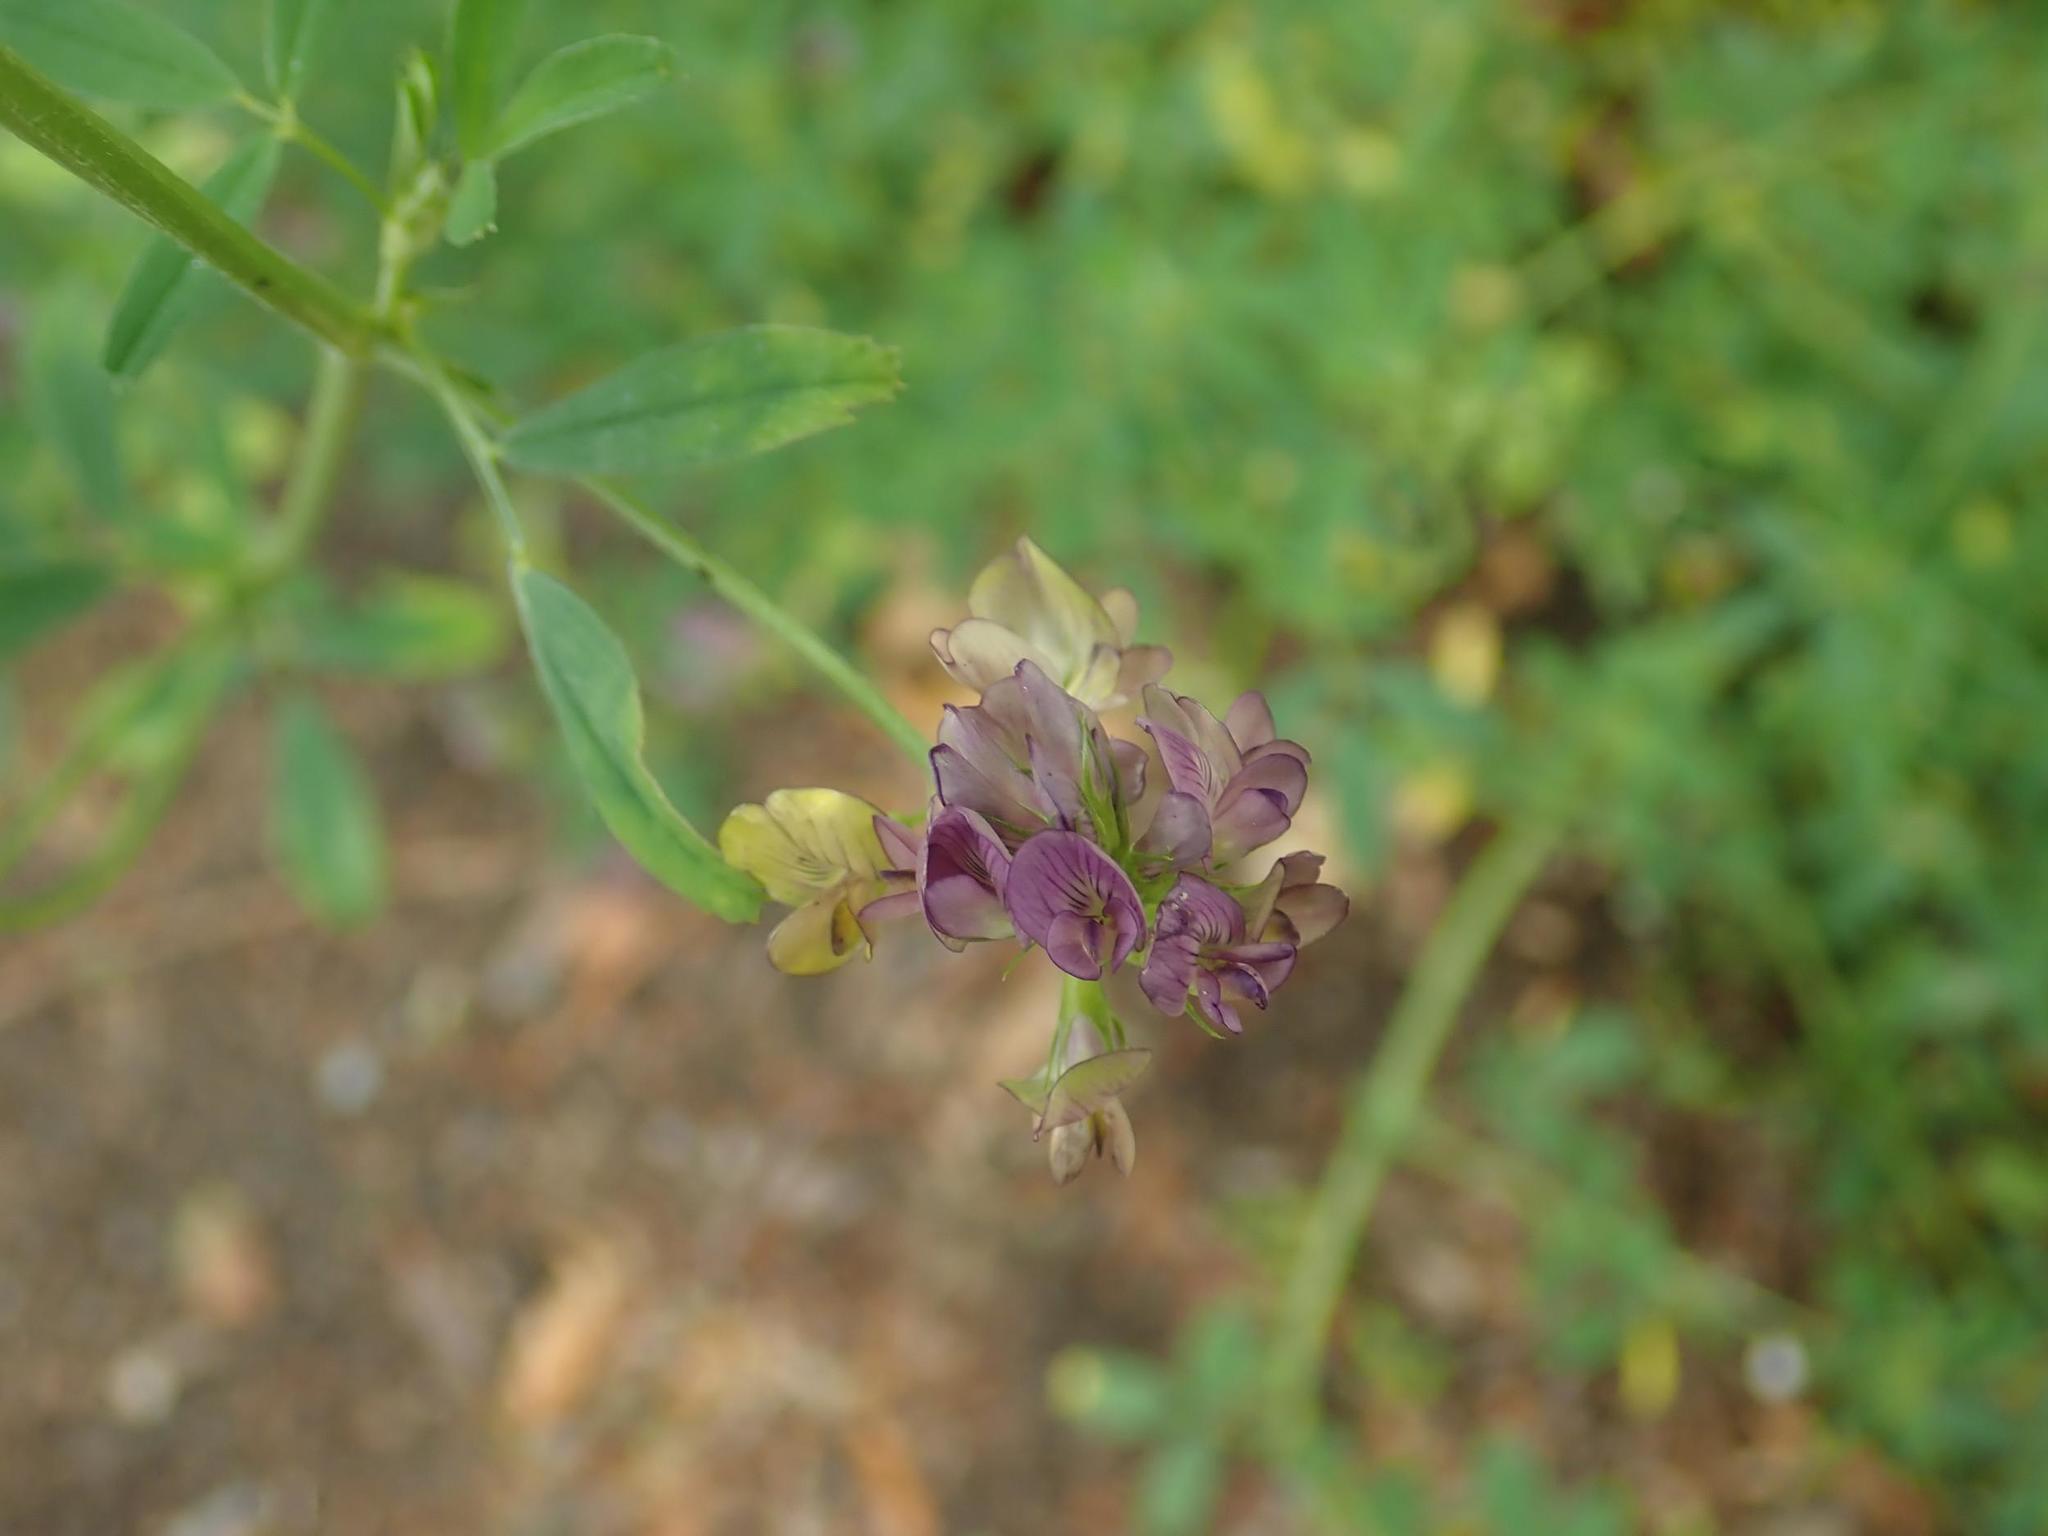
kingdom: Plantae
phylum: Tracheophyta
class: Magnoliopsida
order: Fabales
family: Fabaceae
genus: Medicago
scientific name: Medicago varia
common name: Sand lucerne
